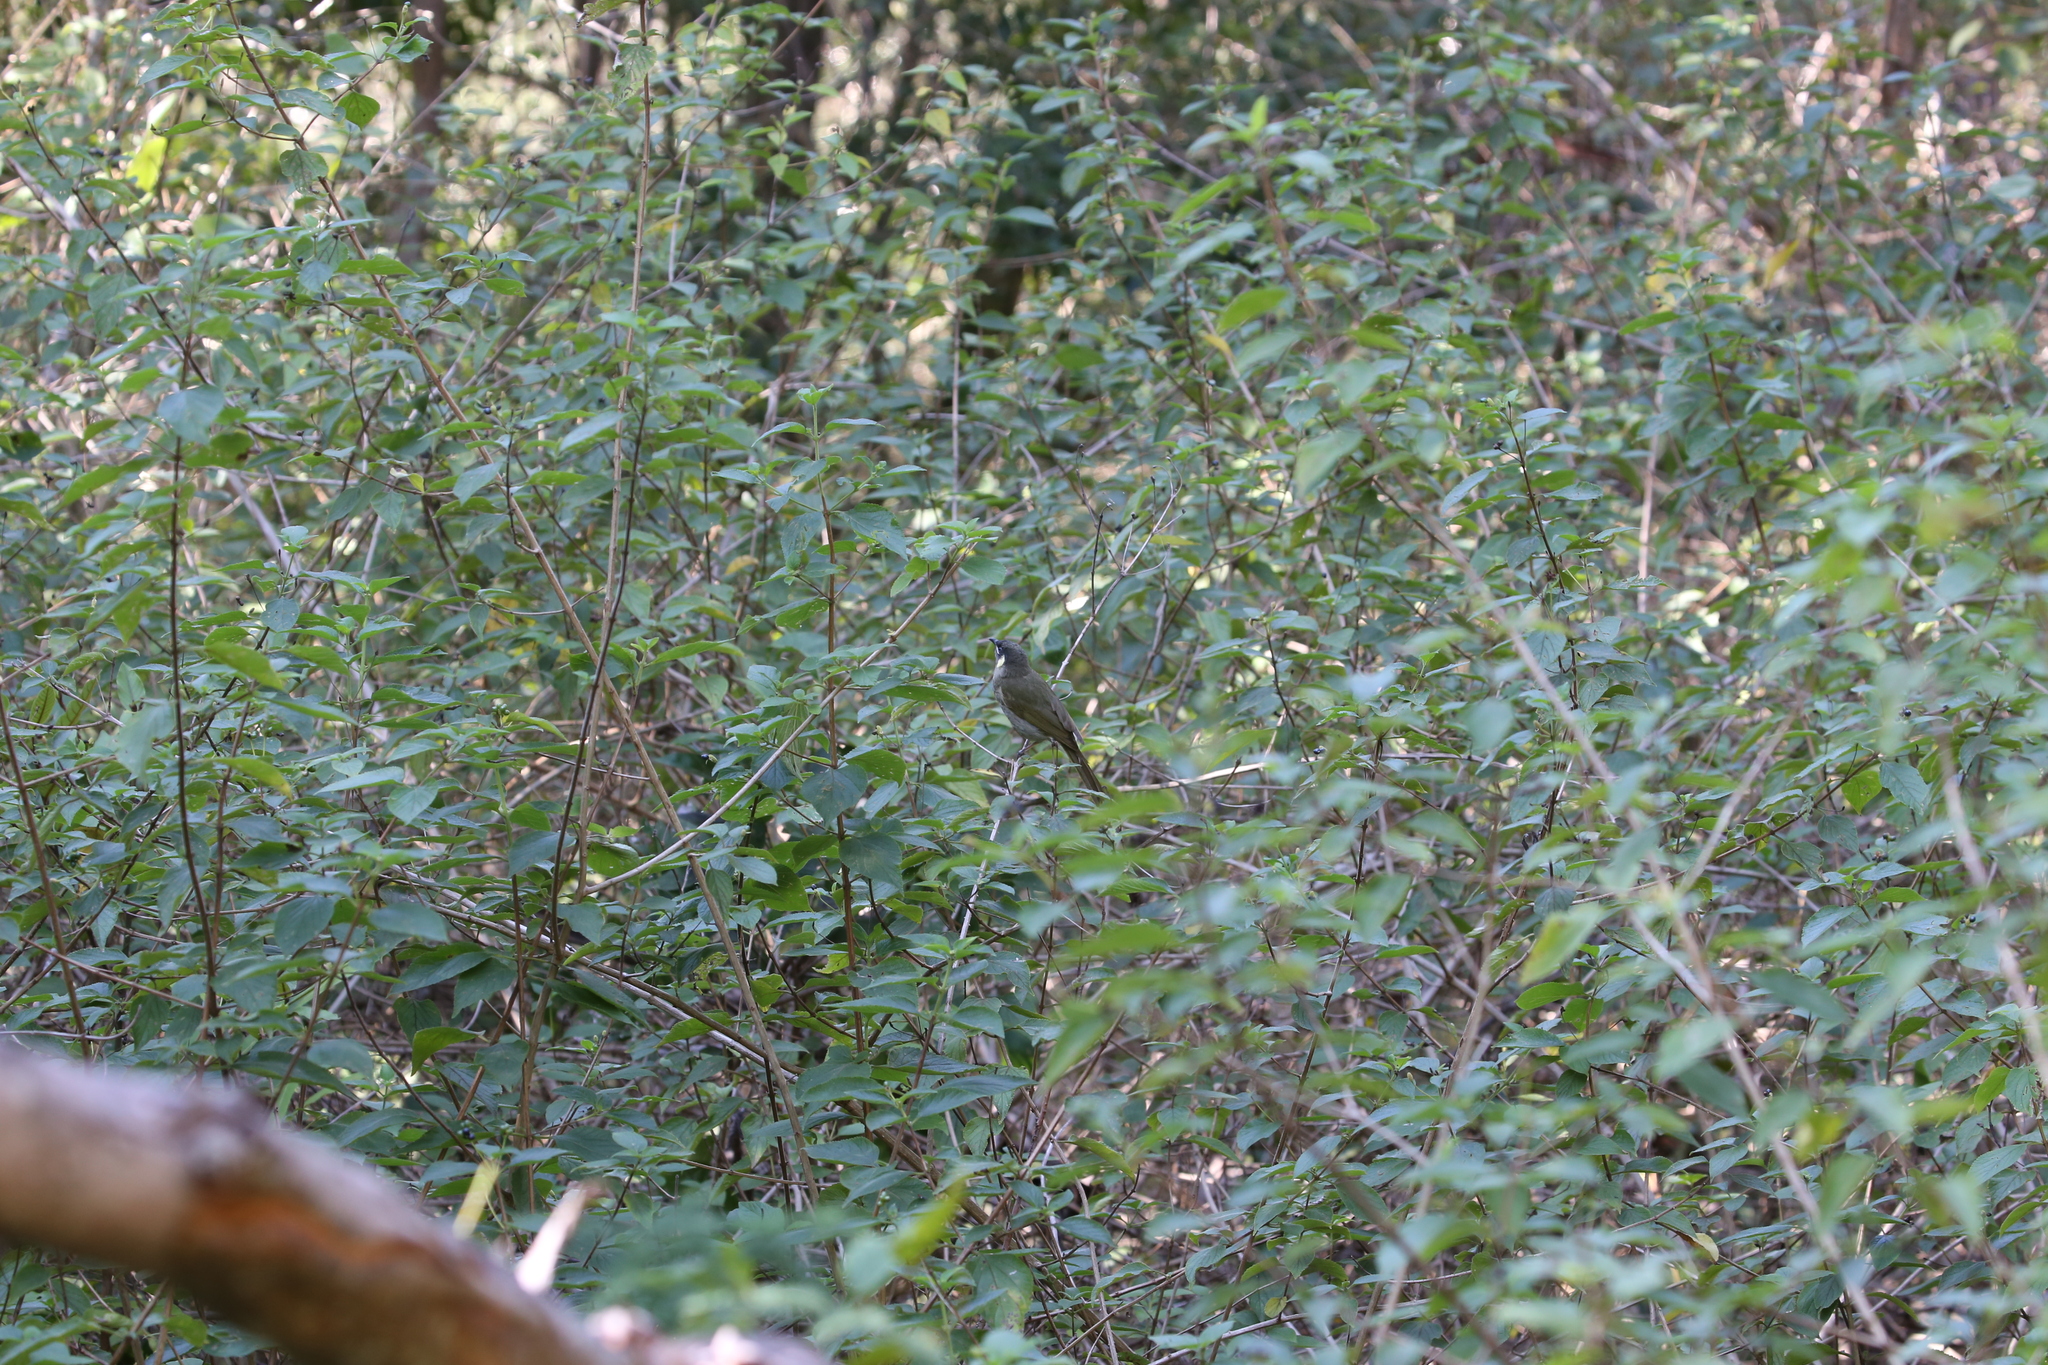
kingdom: Animalia
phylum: Chordata
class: Aves
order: Passeriformes
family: Meliphagidae
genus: Meliphaga
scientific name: Meliphaga lewinii
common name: Lewin's honeyeater
